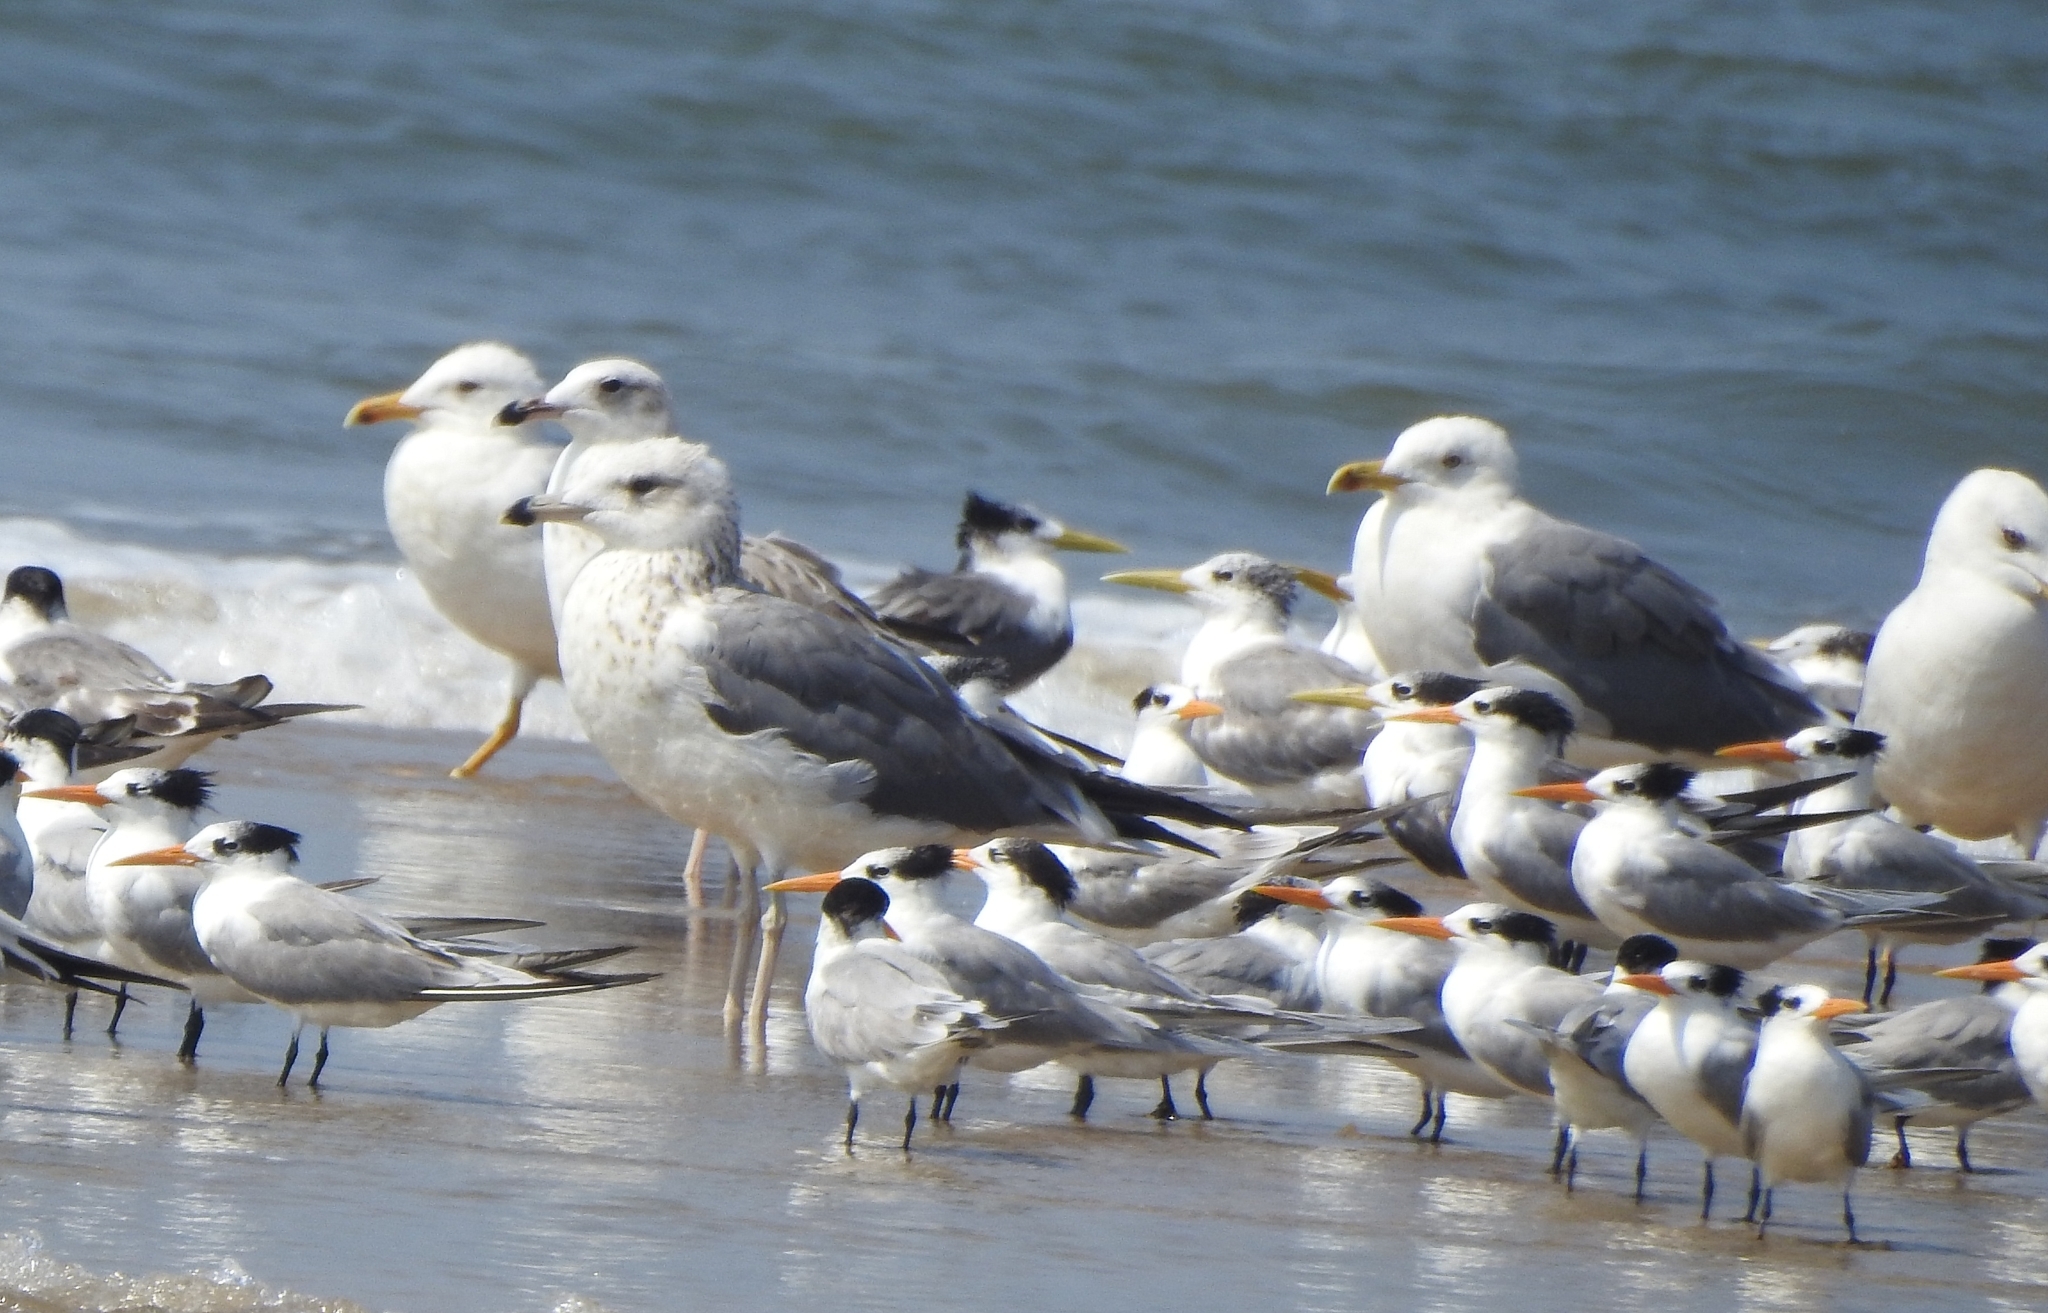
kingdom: Animalia
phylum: Chordata
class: Aves
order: Charadriiformes
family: Laridae
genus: Larus
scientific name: Larus fuscus
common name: Lesser black-backed gull
